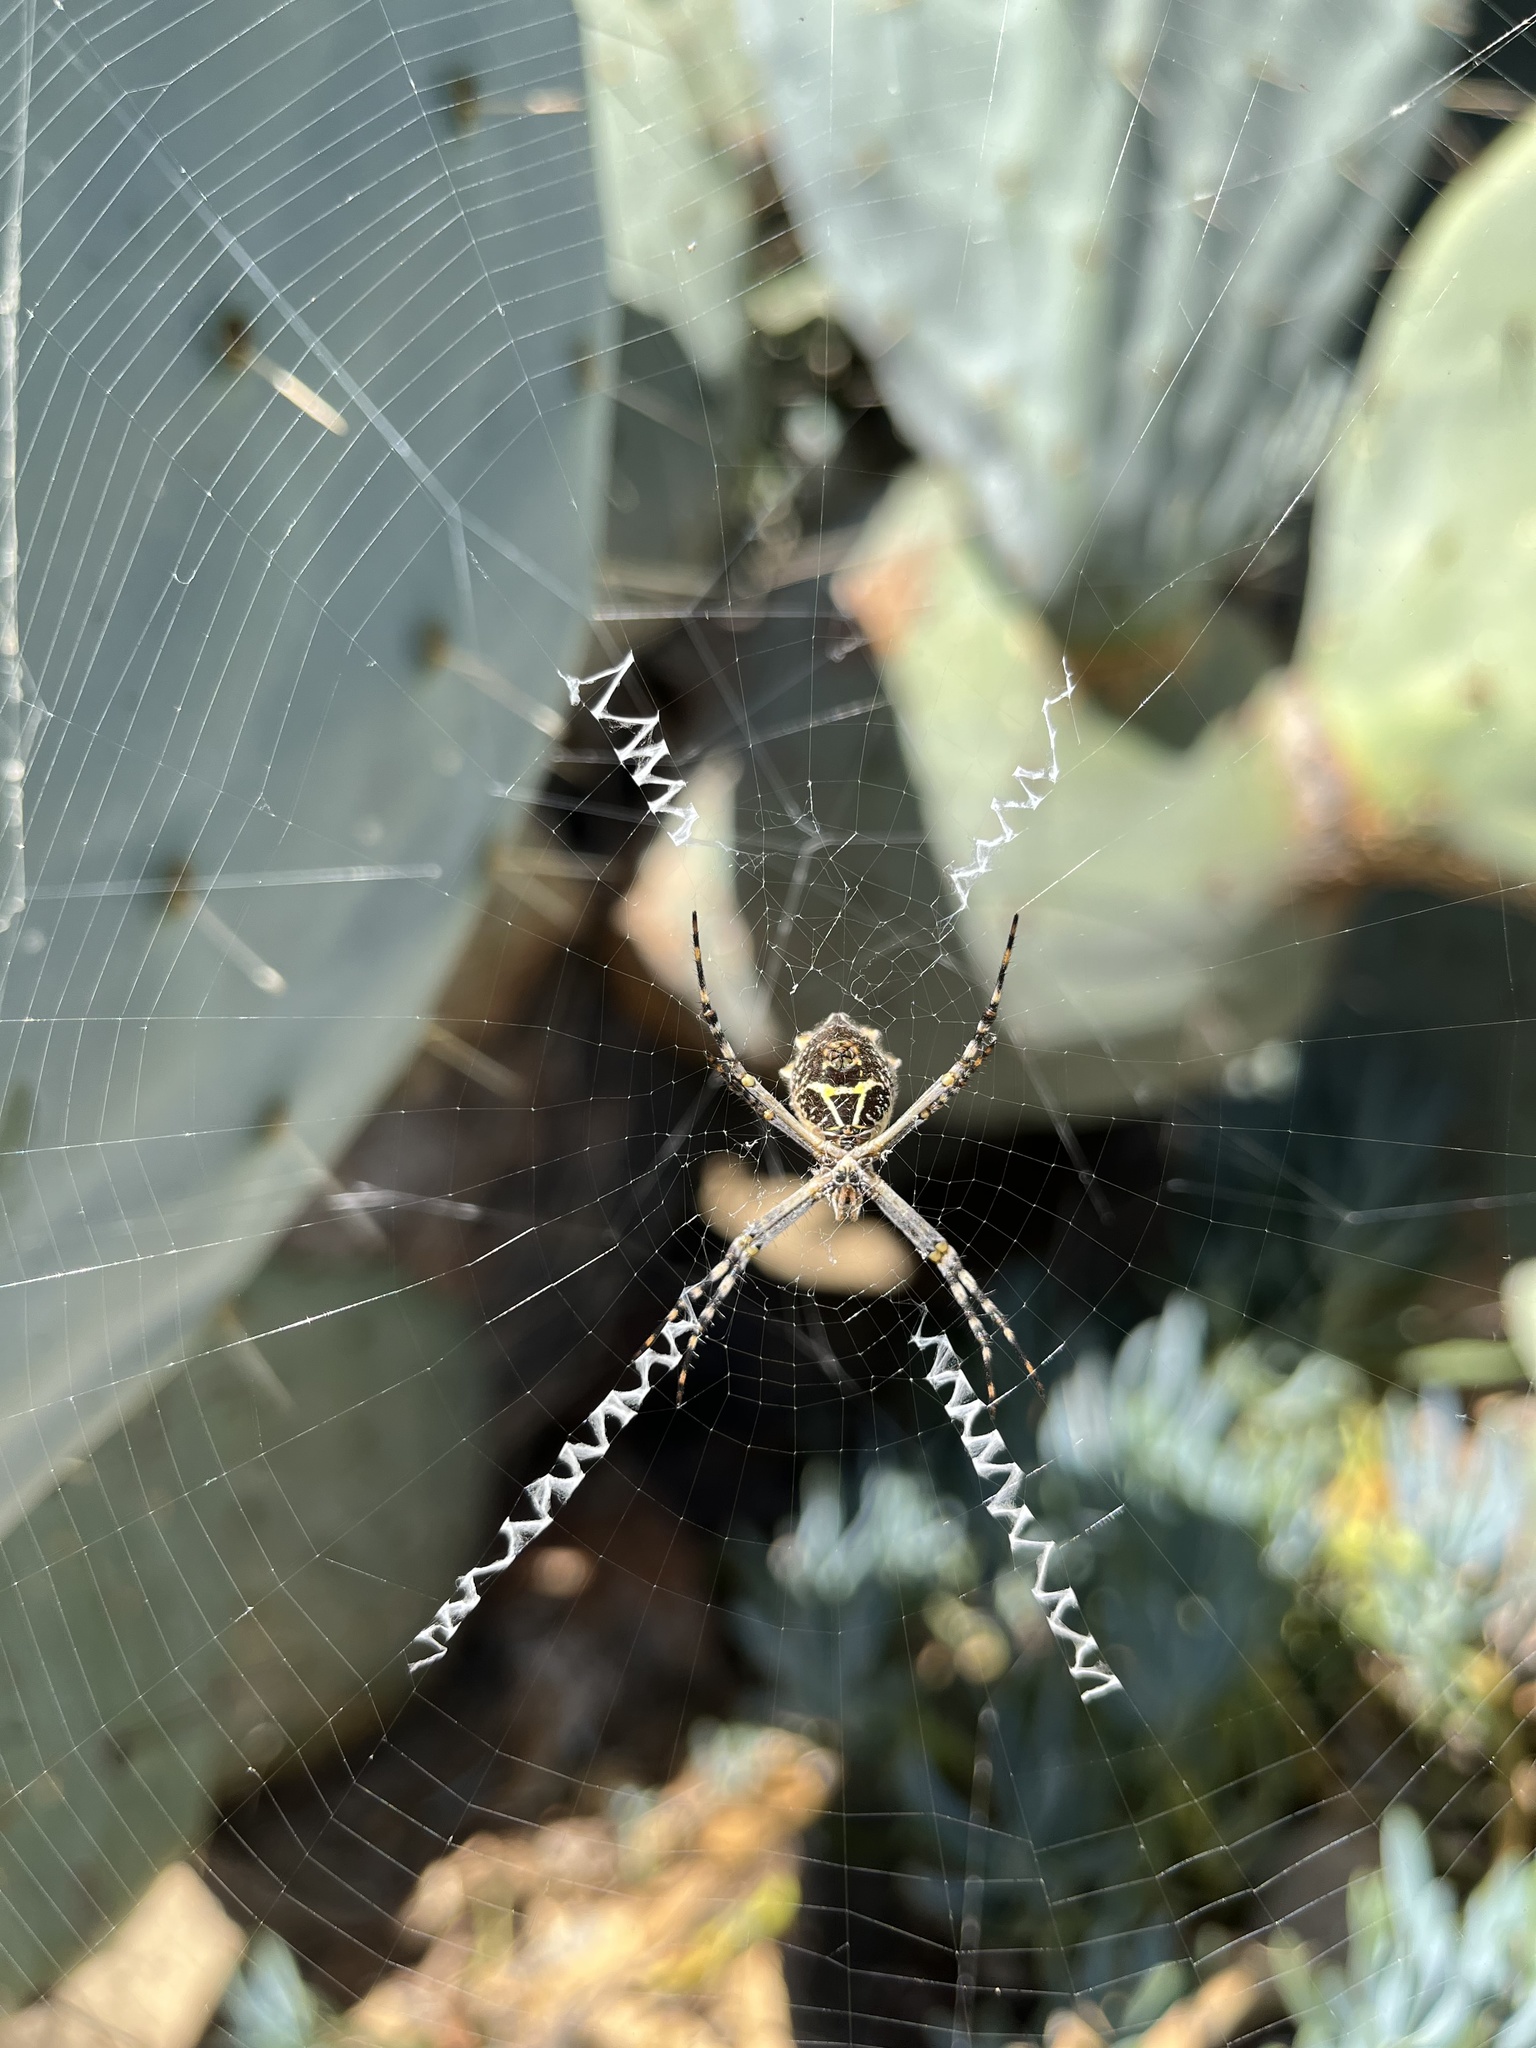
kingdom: Animalia
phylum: Arthropoda
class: Arachnida
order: Araneae
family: Araneidae
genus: Argiope
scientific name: Argiope argentata
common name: Orb weavers
